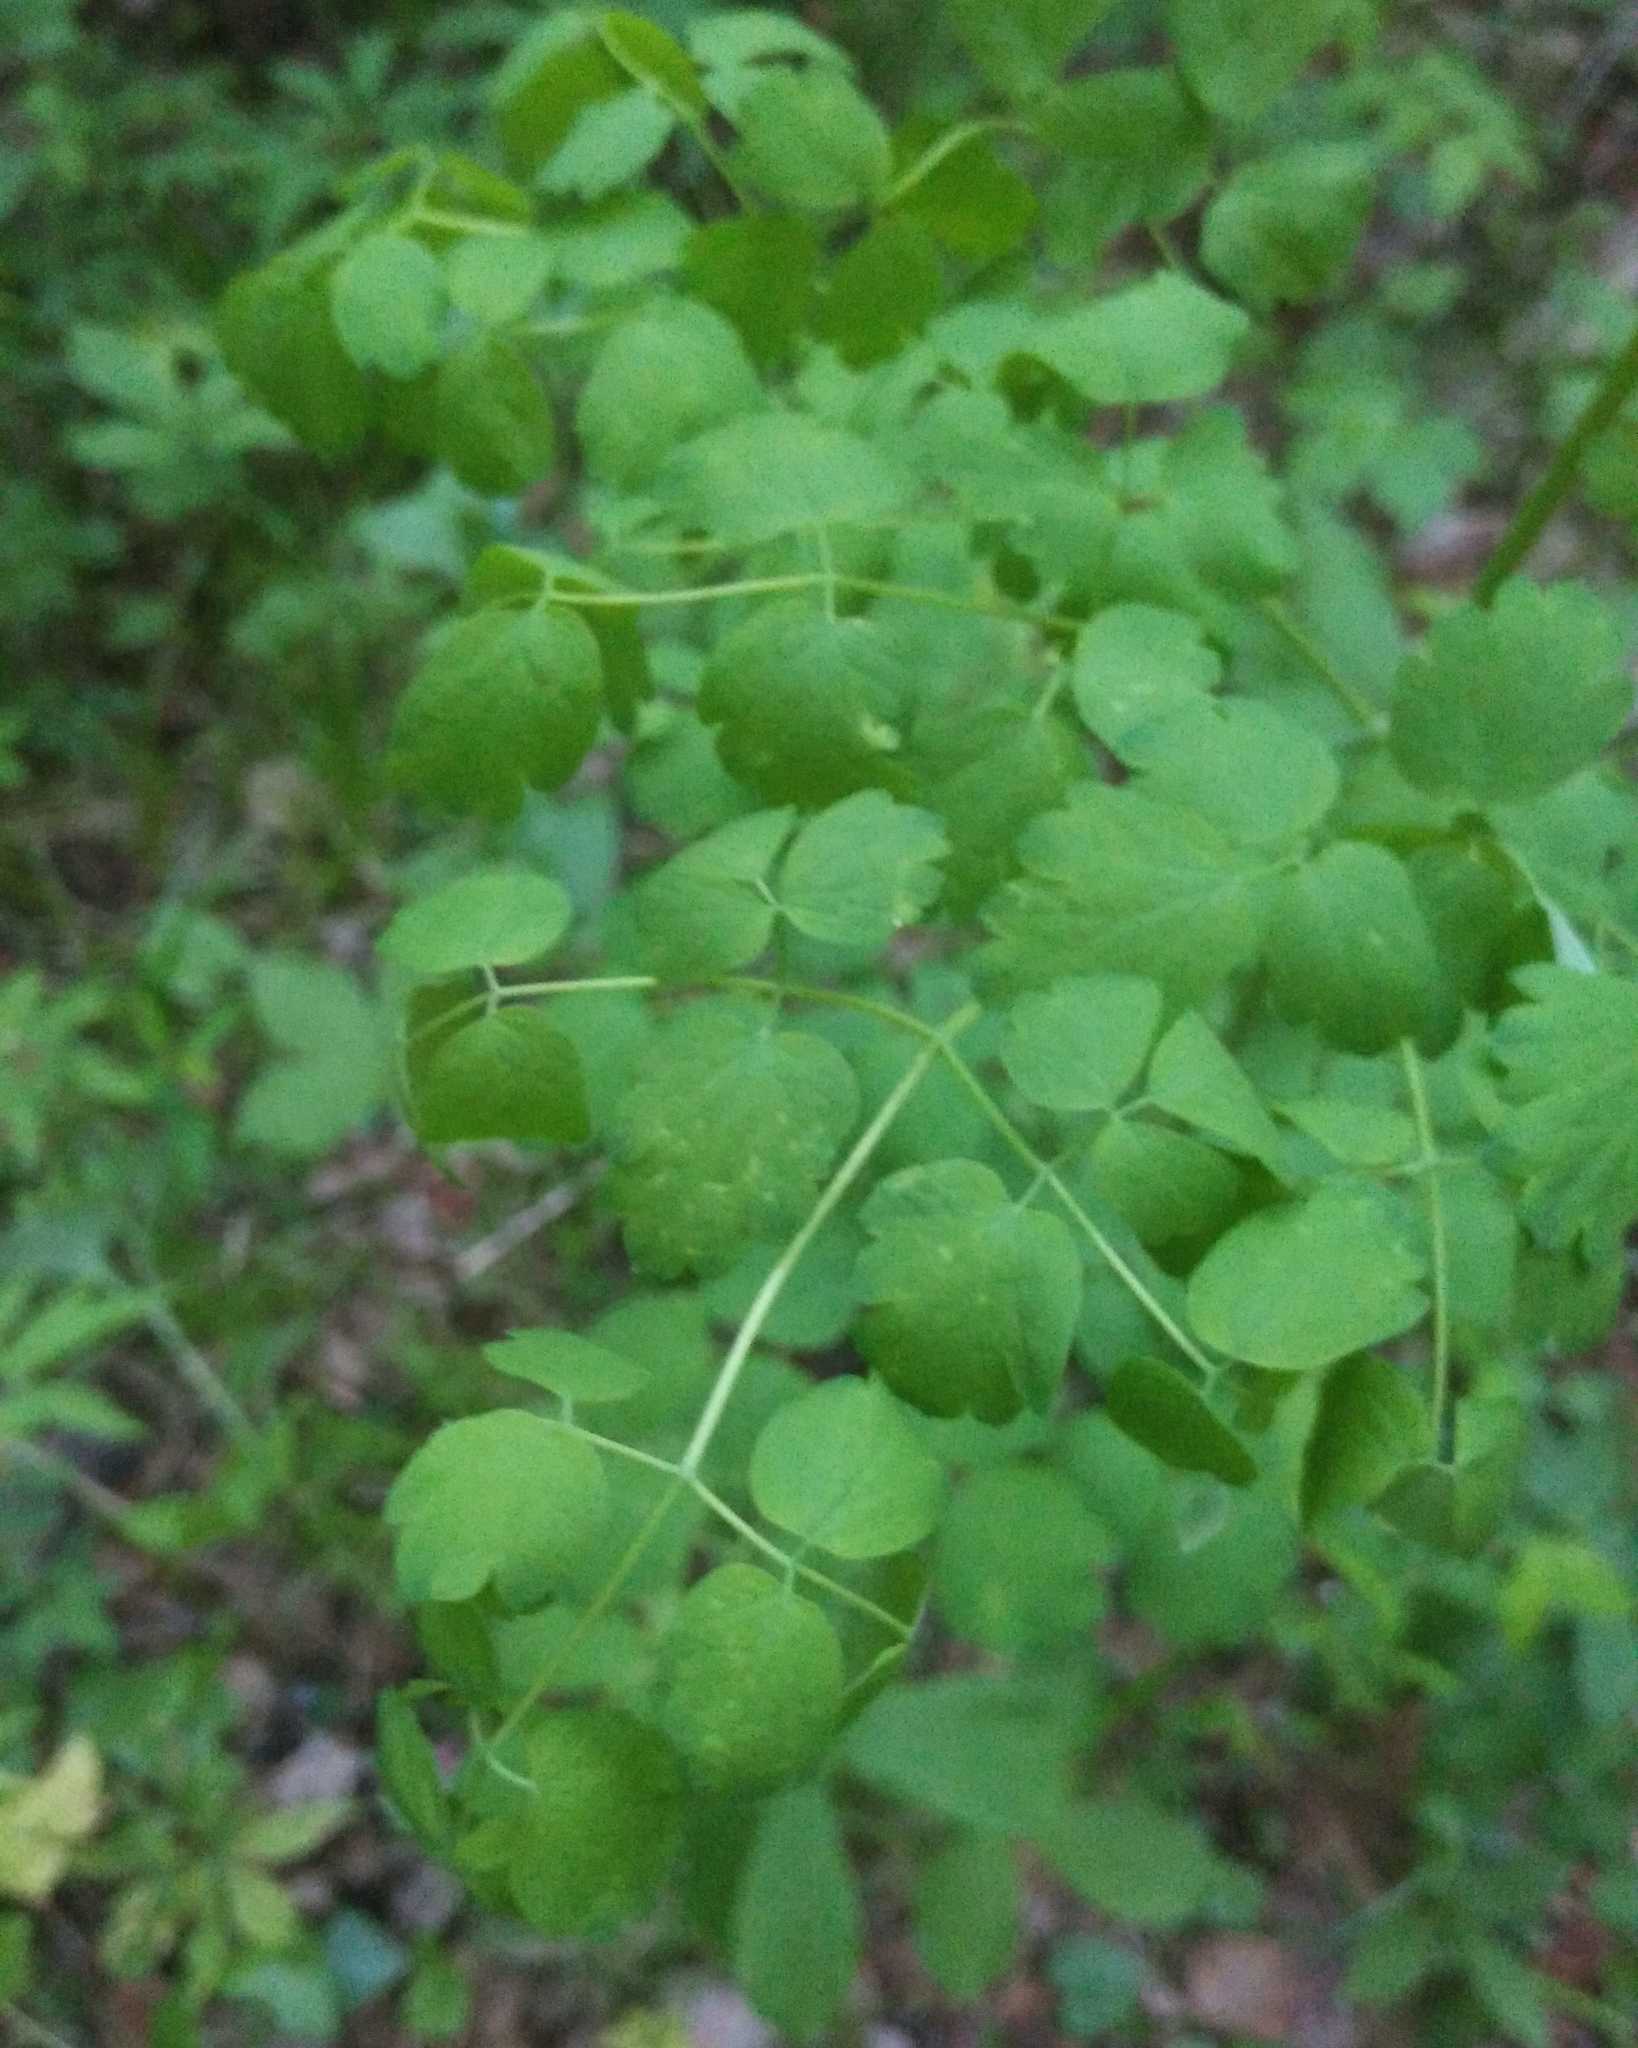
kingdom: Plantae
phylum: Tracheophyta
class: Magnoliopsida
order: Ranunculales
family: Ranunculaceae
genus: Thalictrum
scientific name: Thalictrum minus
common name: Lesser meadow-rue
